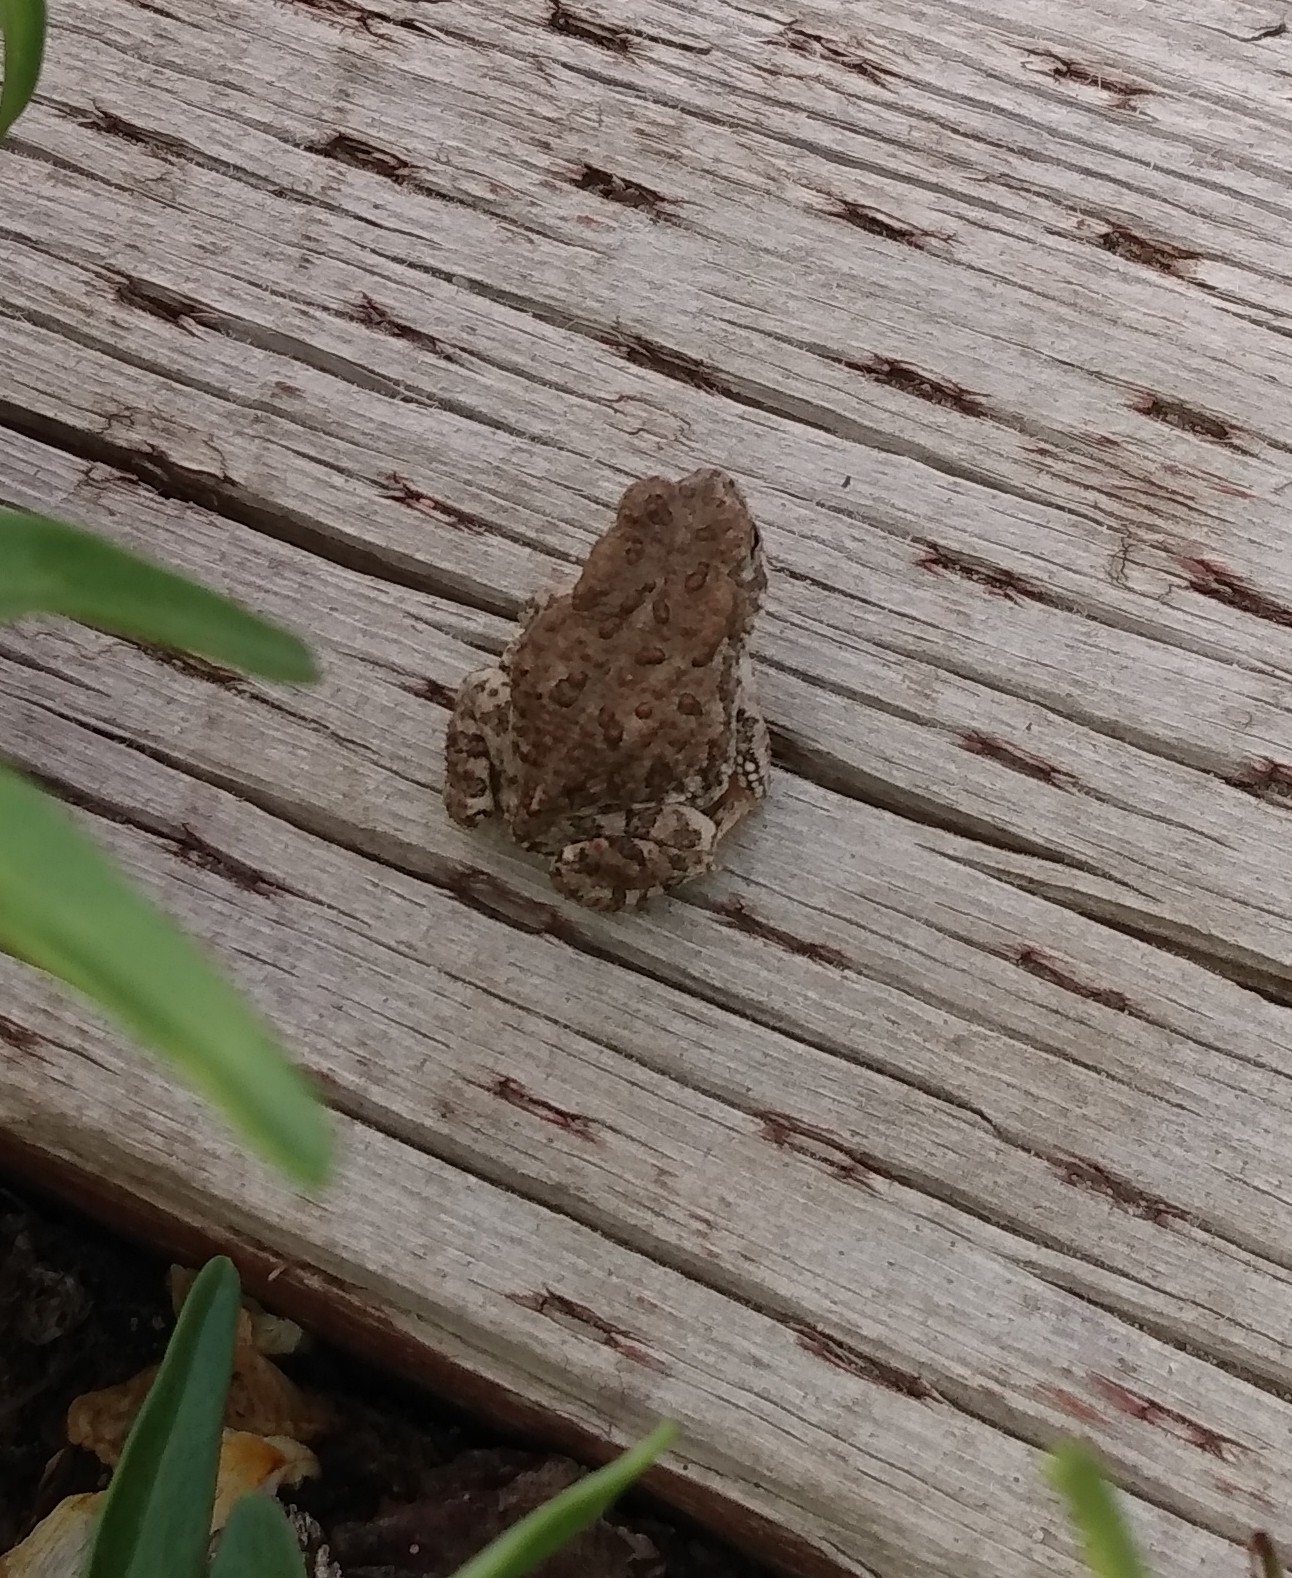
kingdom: Animalia
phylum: Chordata
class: Amphibia
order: Anura
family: Bufonidae
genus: Anaxyrus
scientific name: Anaxyrus woodhousii
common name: Woodhouse's toad
